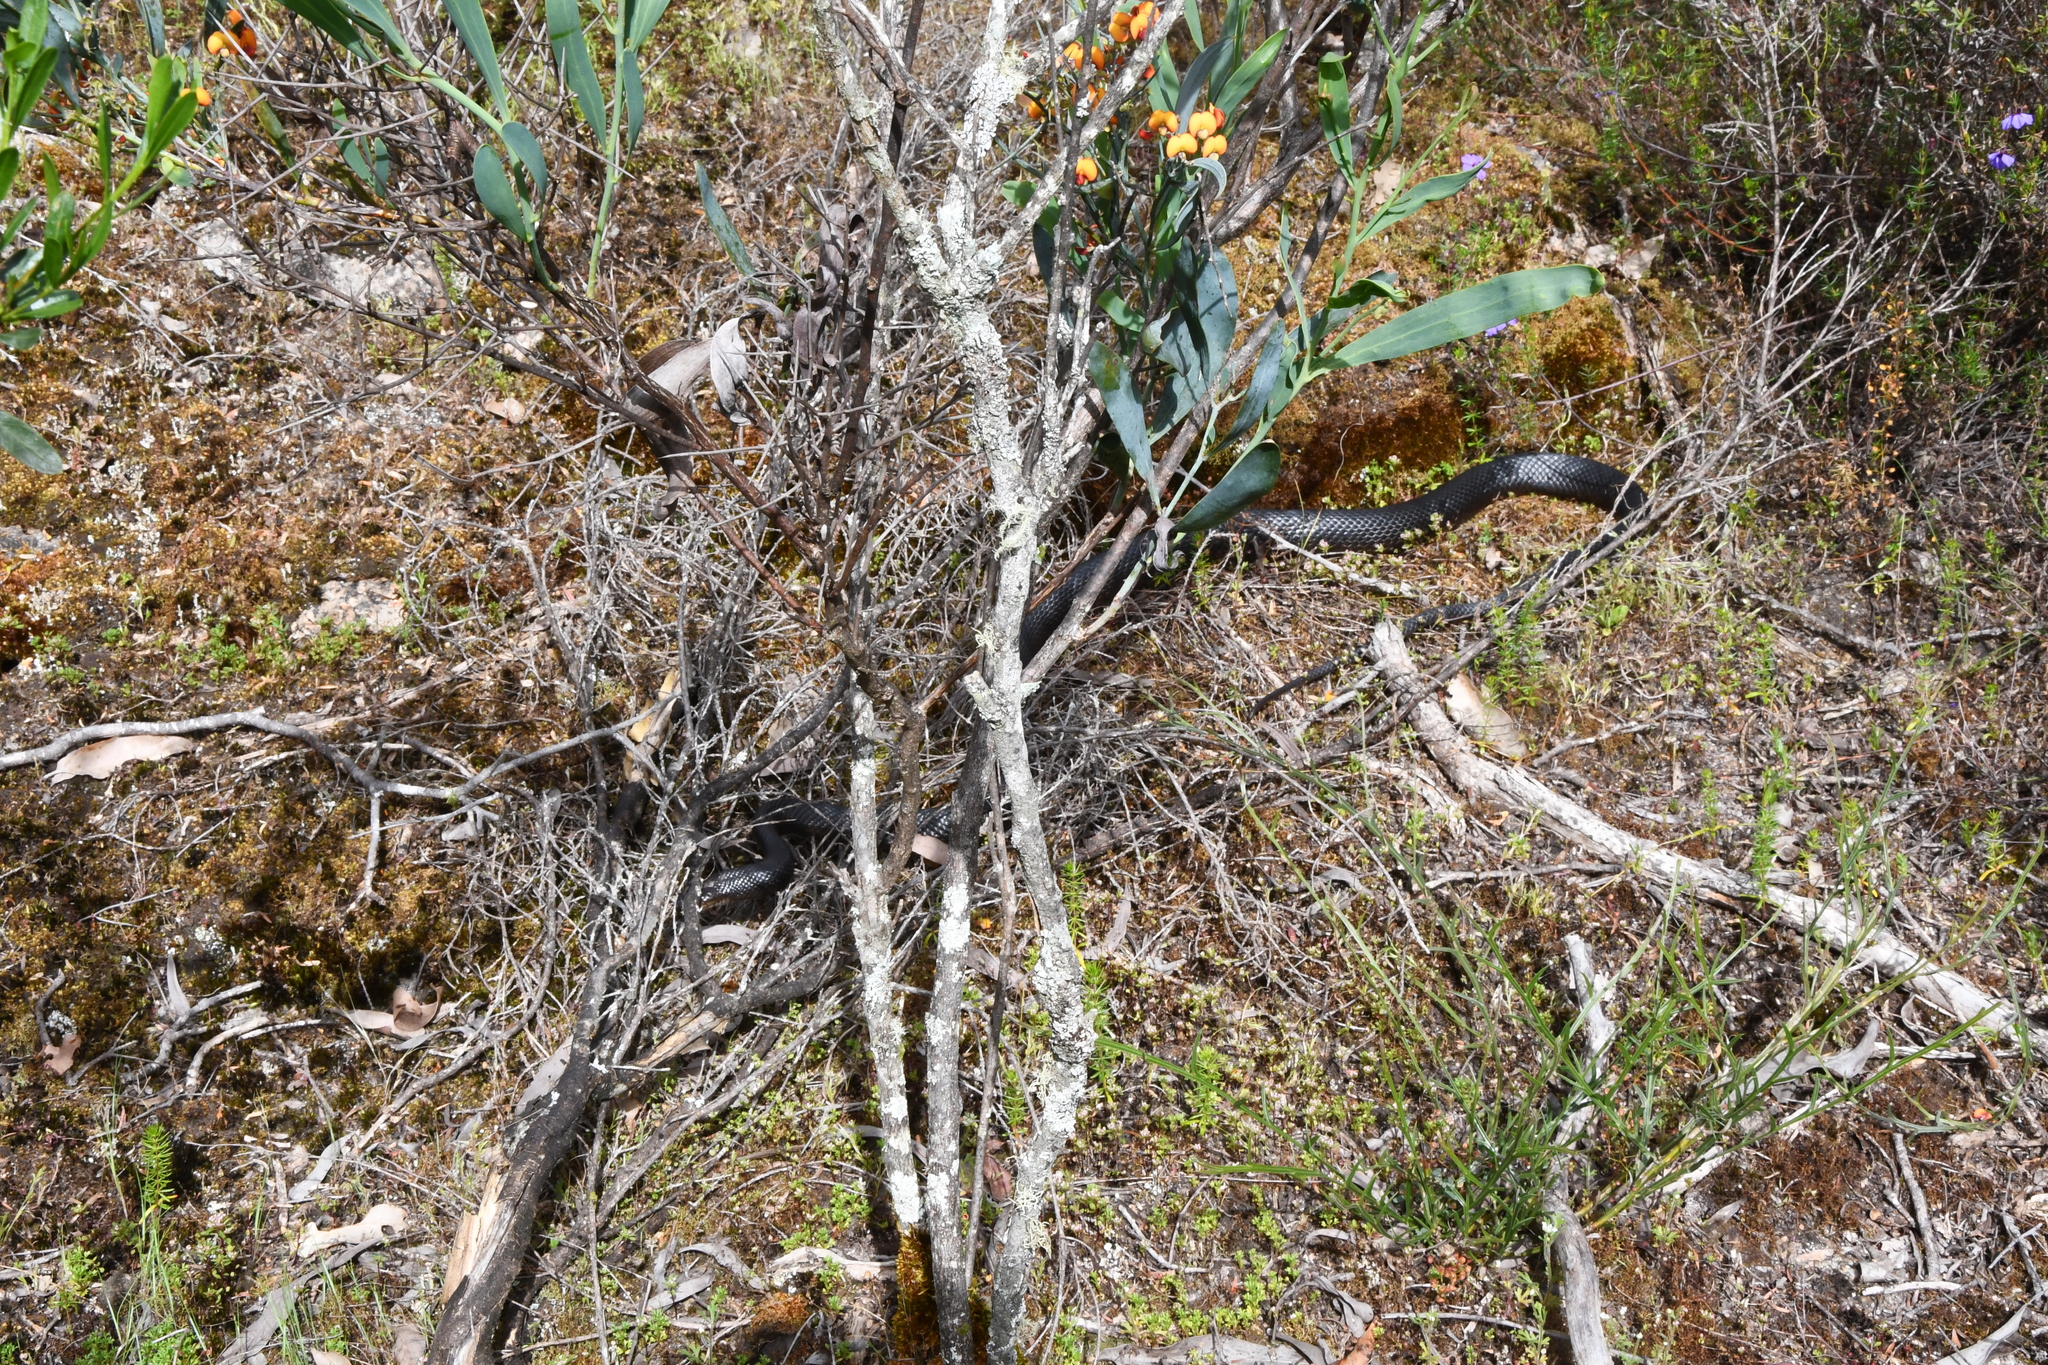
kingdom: Animalia
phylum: Chordata
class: Squamata
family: Elapidae
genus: Pseudonaja
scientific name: Pseudonaja affinis
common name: Dugite
